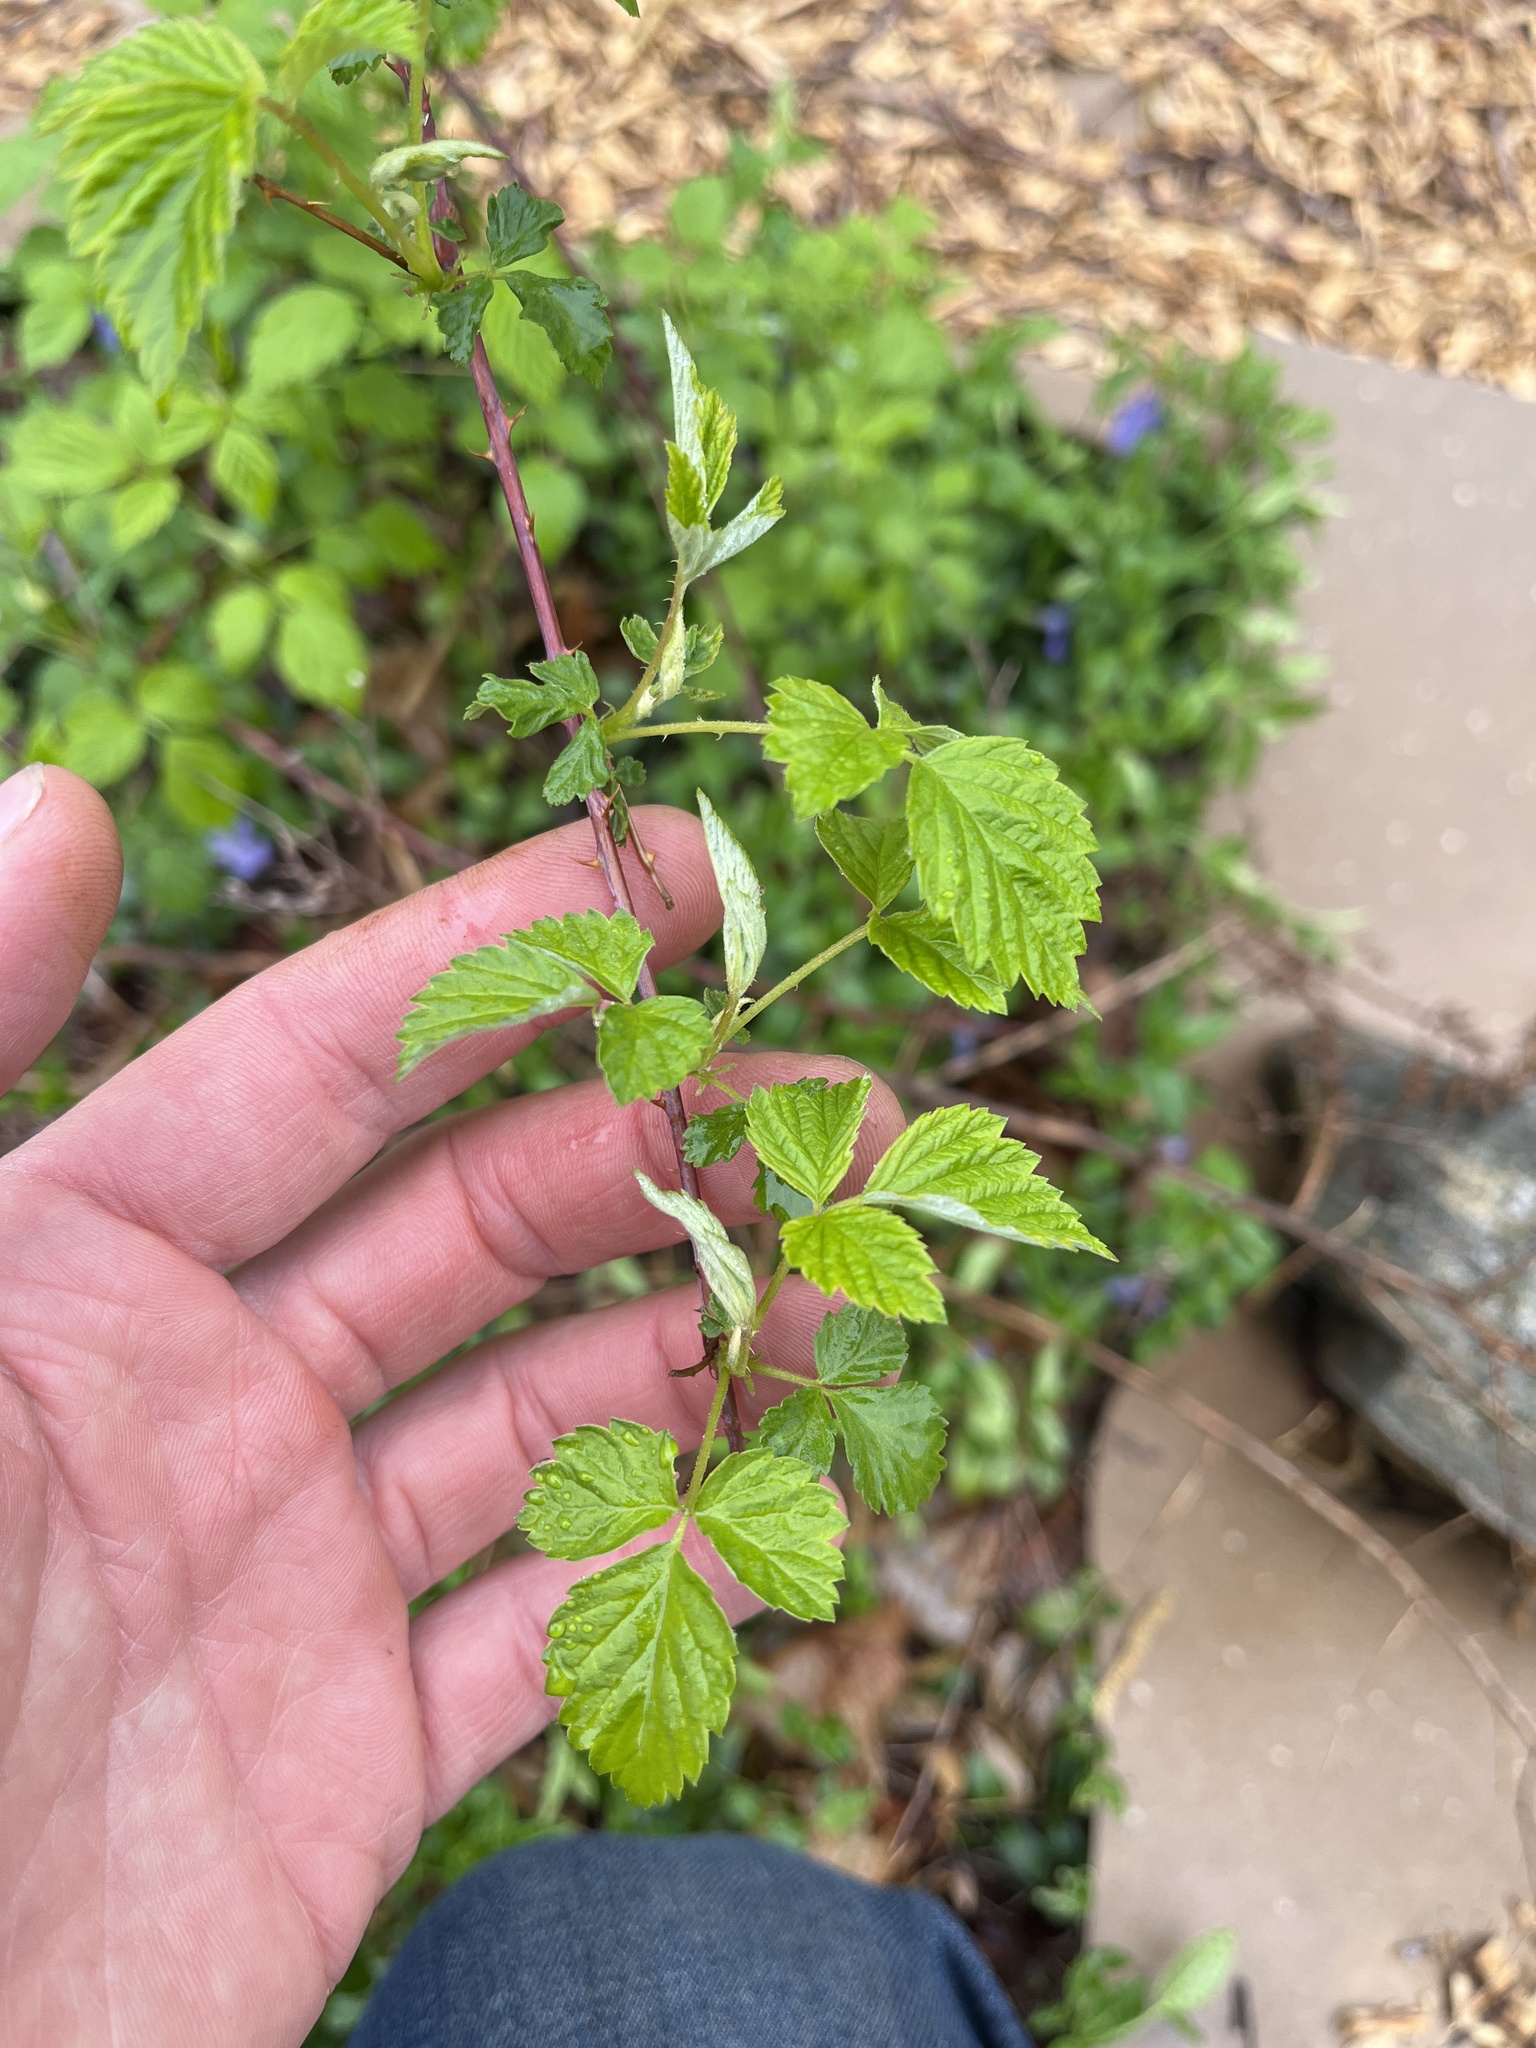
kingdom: Plantae
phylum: Tracheophyta
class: Magnoliopsida
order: Rosales
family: Rosaceae
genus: Rubus
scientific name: Rubus occidentalis
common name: Black raspberry
